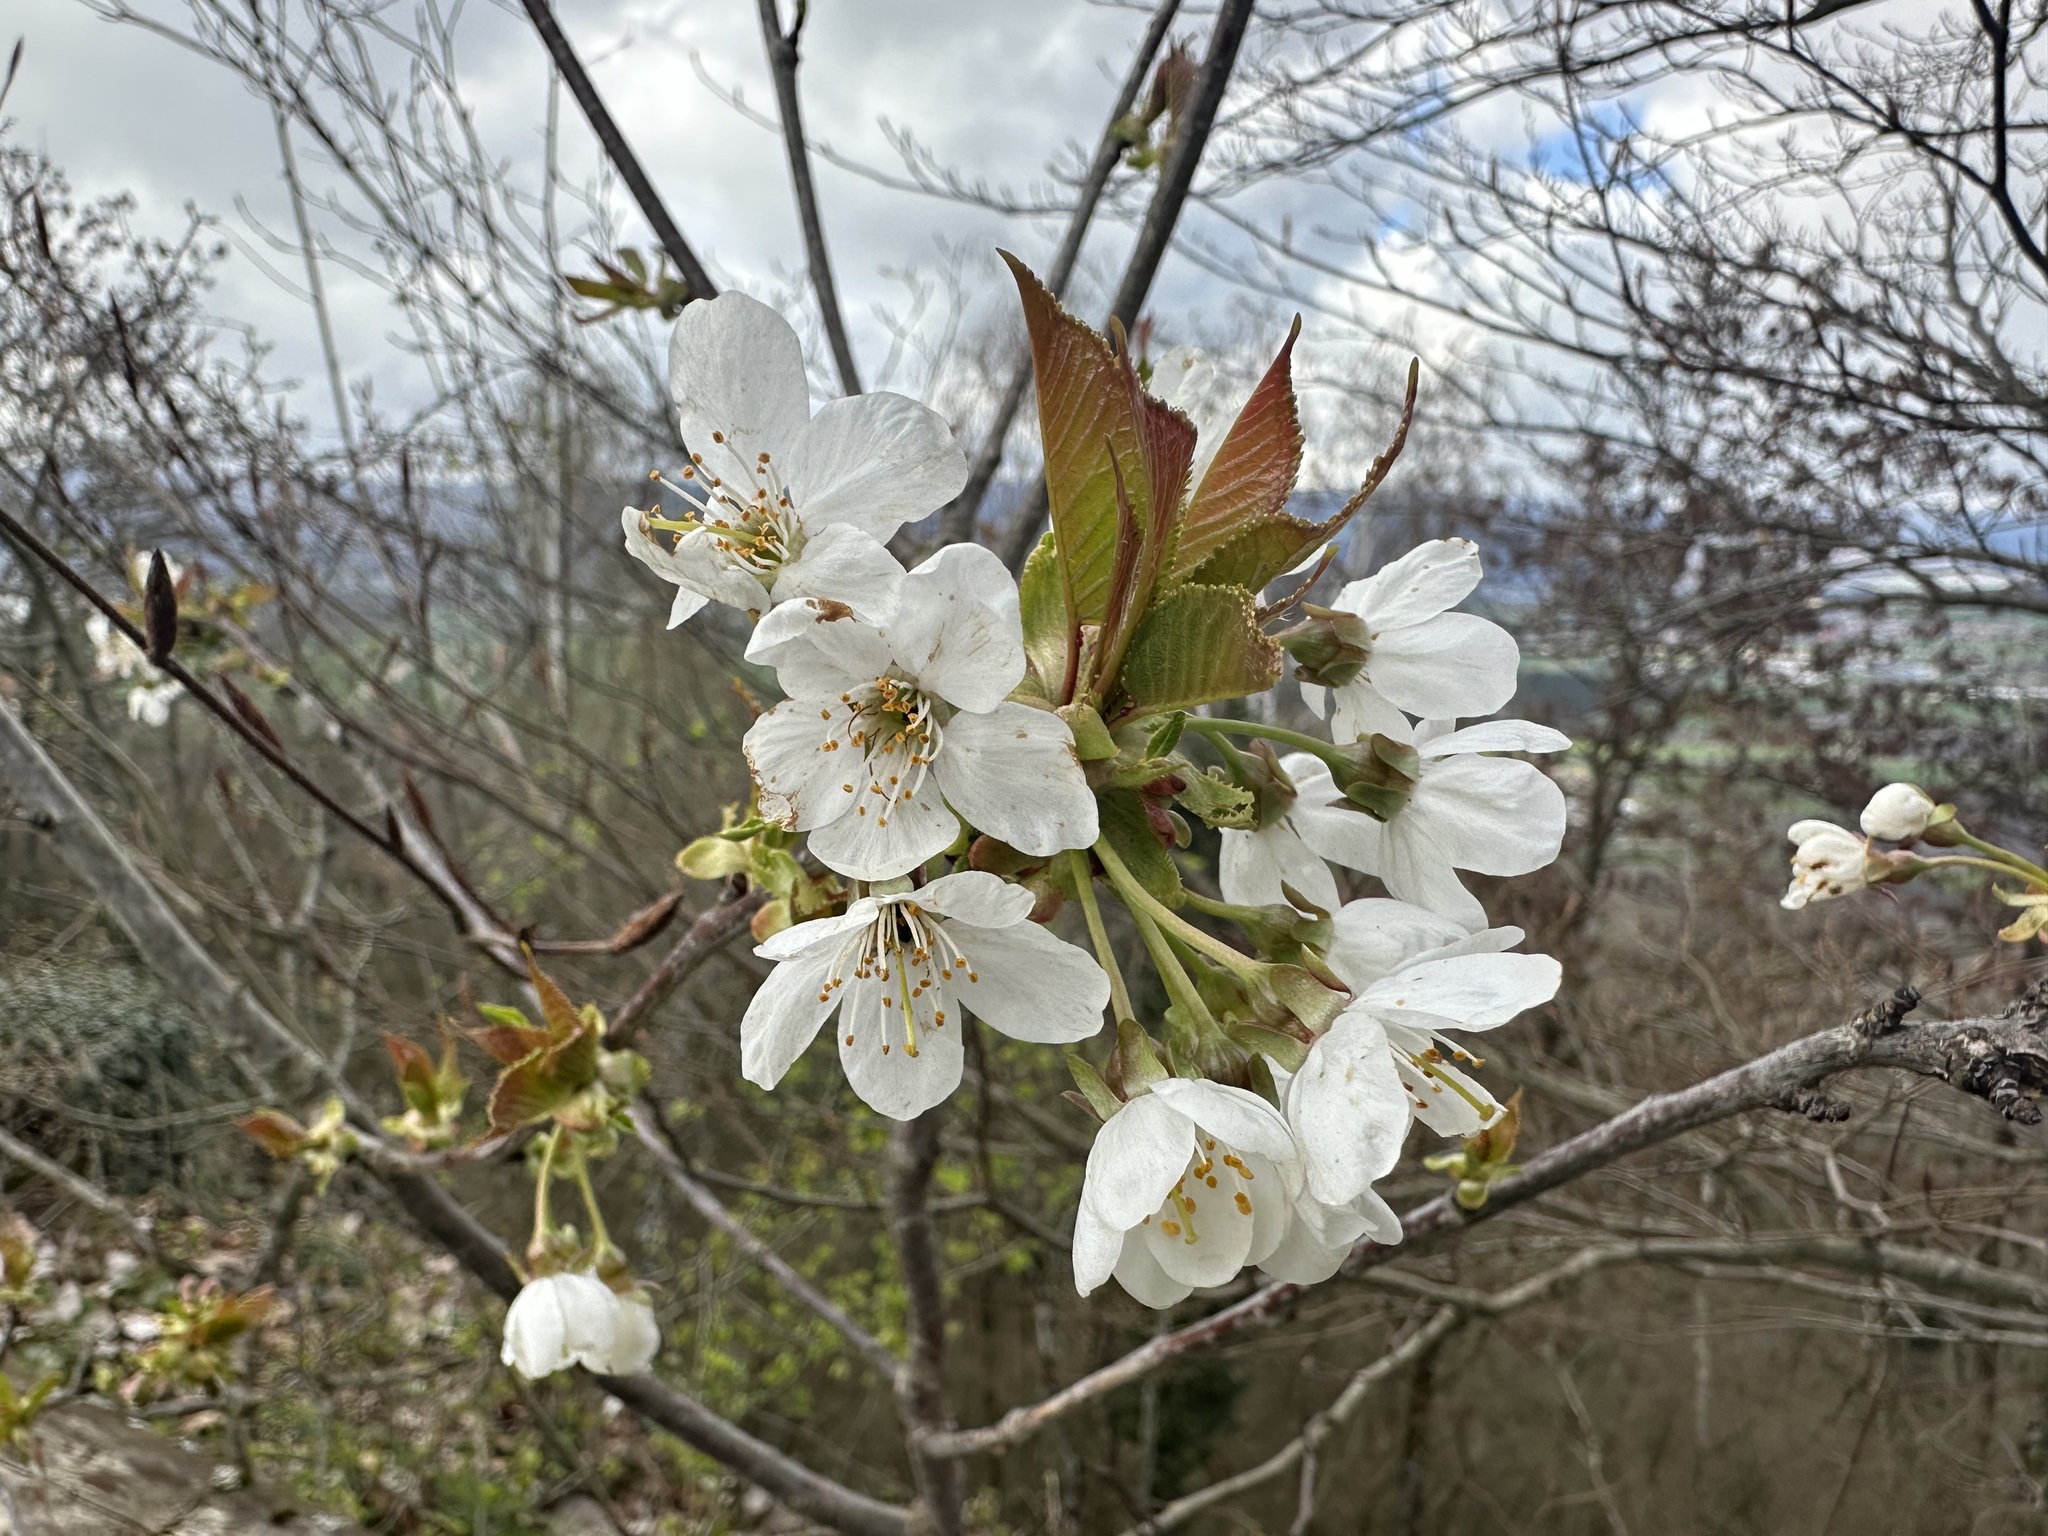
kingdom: Plantae
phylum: Tracheophyta
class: Magnoliopsida
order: Rosales
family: Rosaceae
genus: Prunus
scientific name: Prunus avium
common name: Sweet cherry
